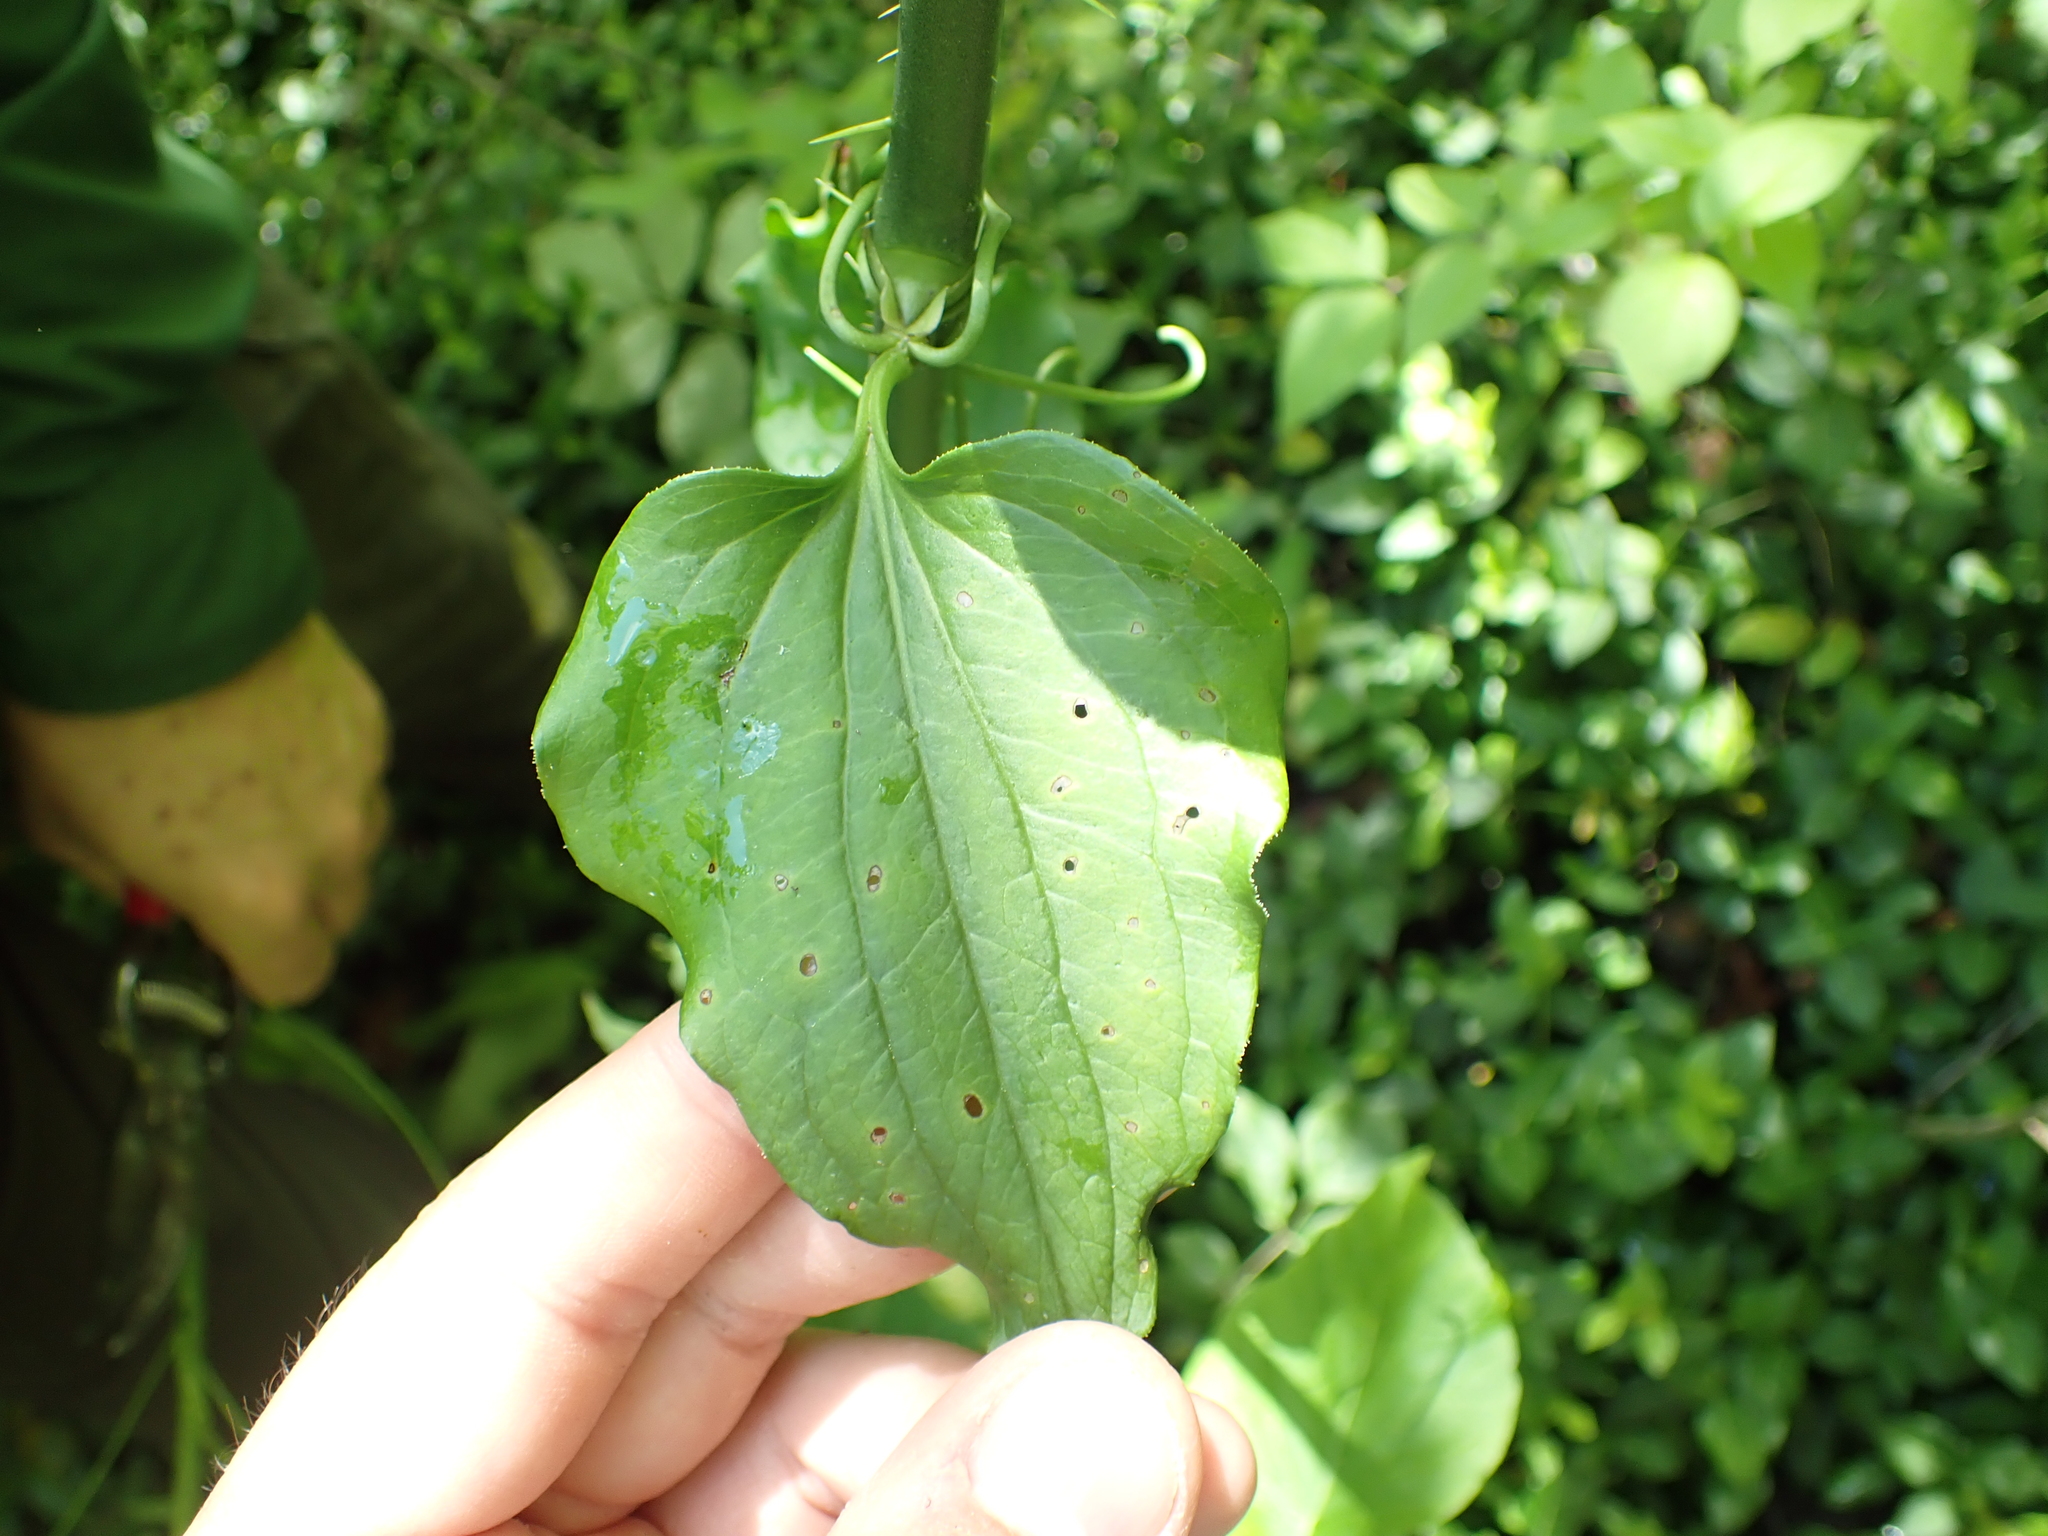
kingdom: Plantae
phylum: Tracheophyta
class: Liliopsida
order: Liliales
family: Smilacaceae
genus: Smilax
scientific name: Smilax tamnoides
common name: Hellfetter
